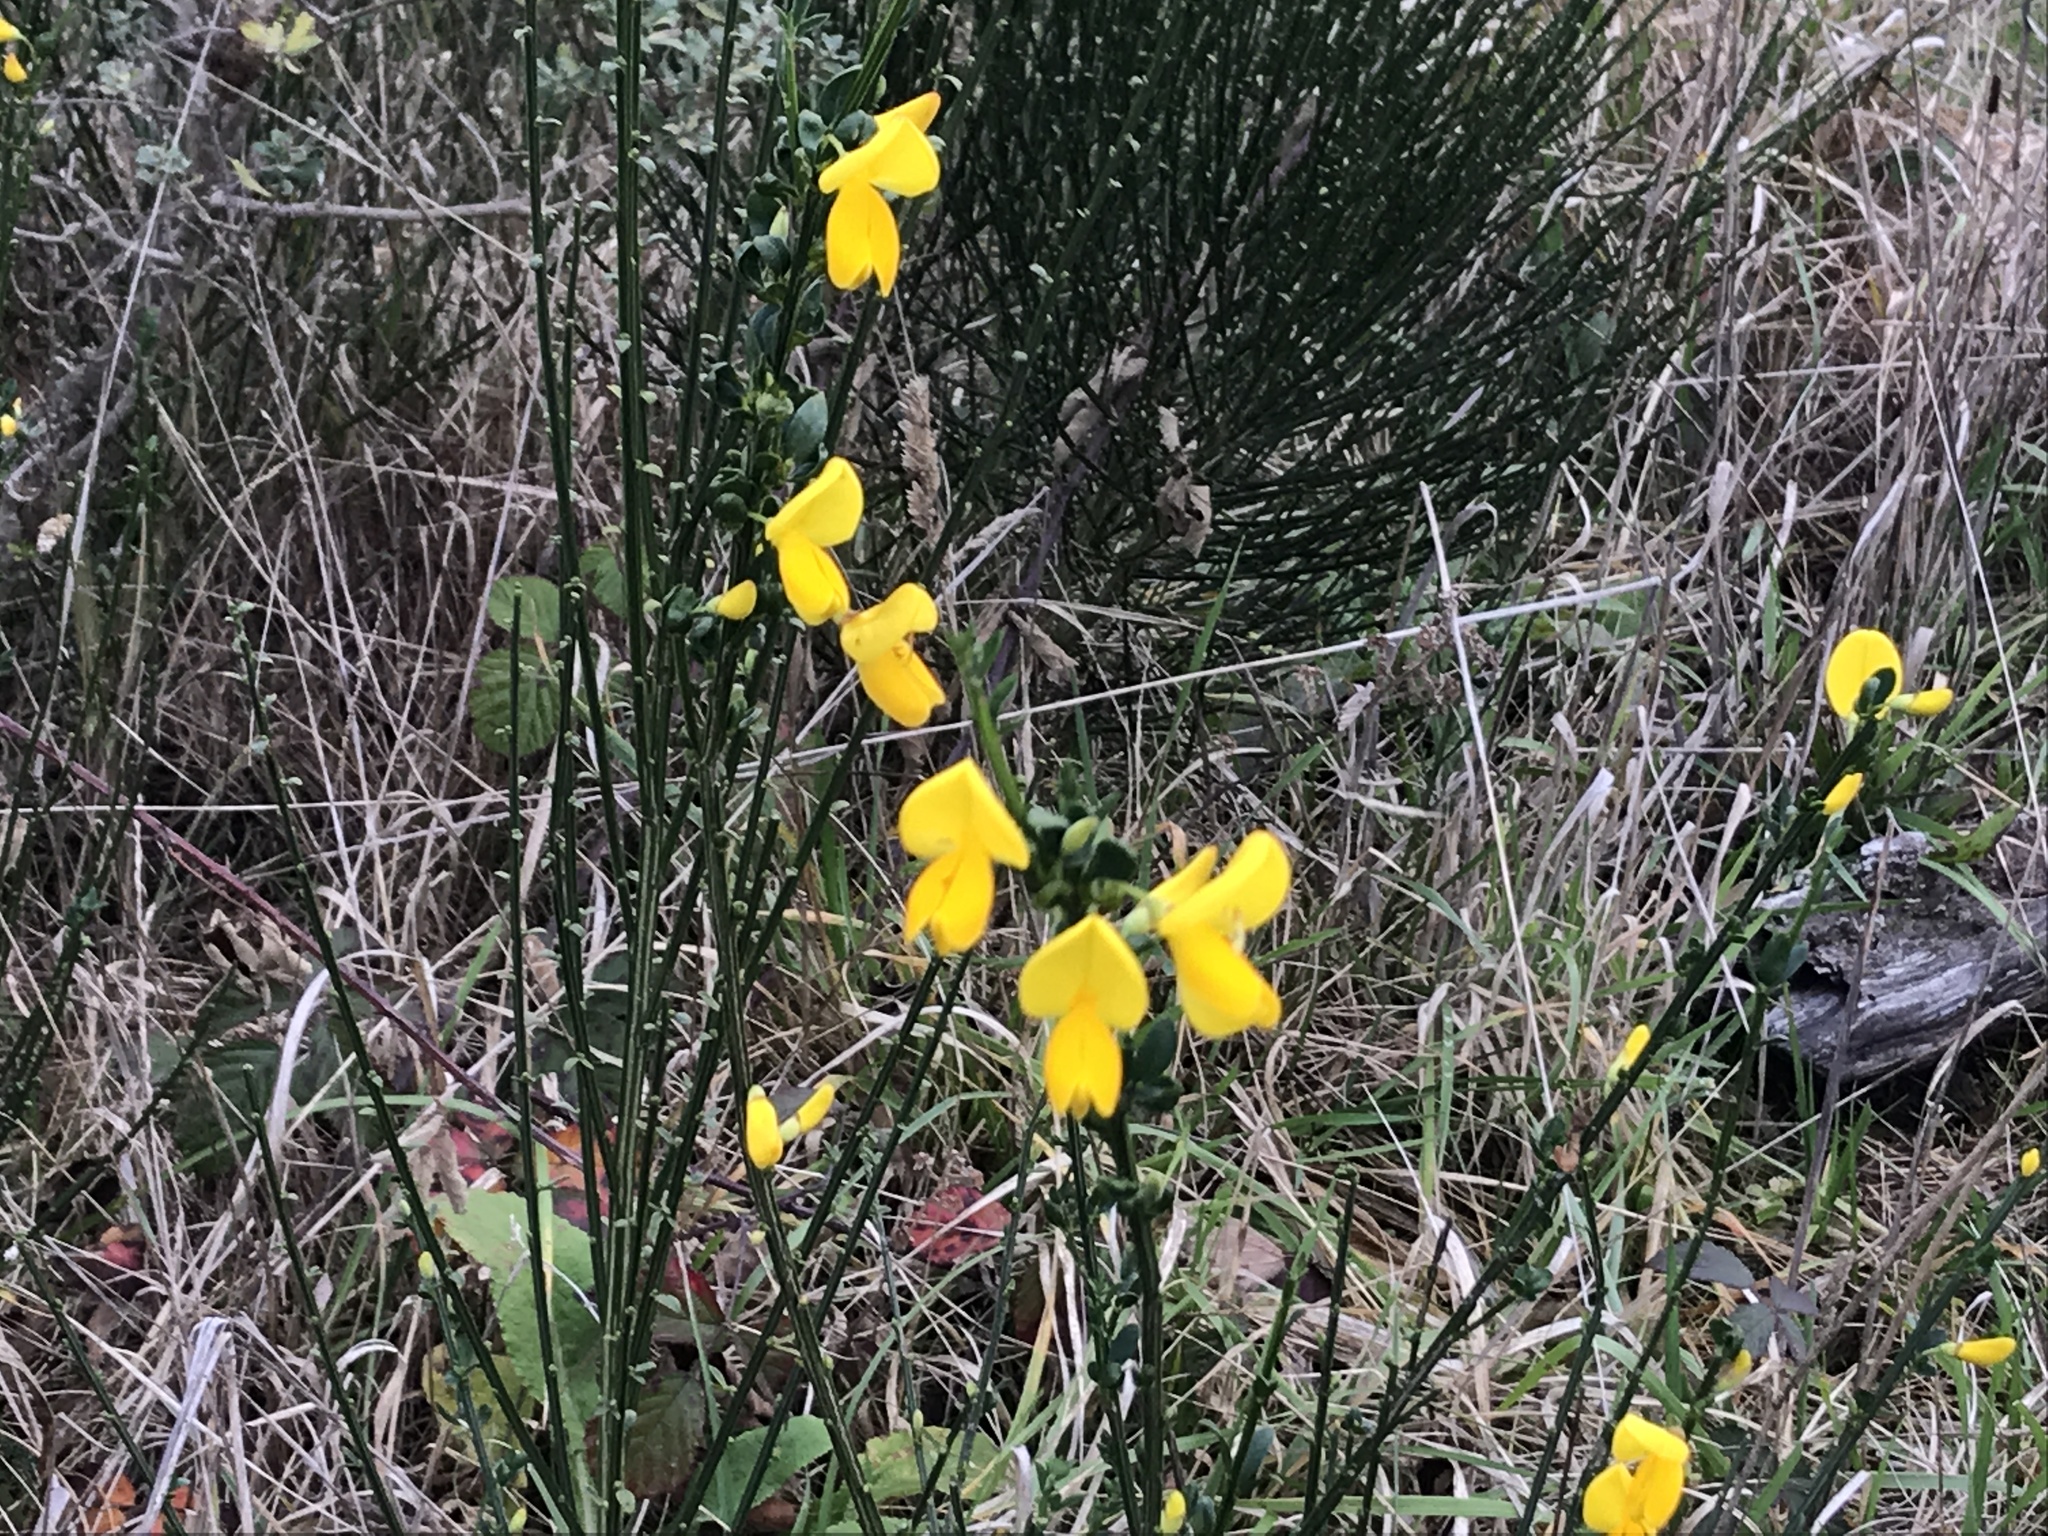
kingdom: Plantae
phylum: Tracheophyta
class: Magnoliopsida
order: Fabales
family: Fabaceae
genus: Cytisus
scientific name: Cytisus scoparius
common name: Scotch broom
